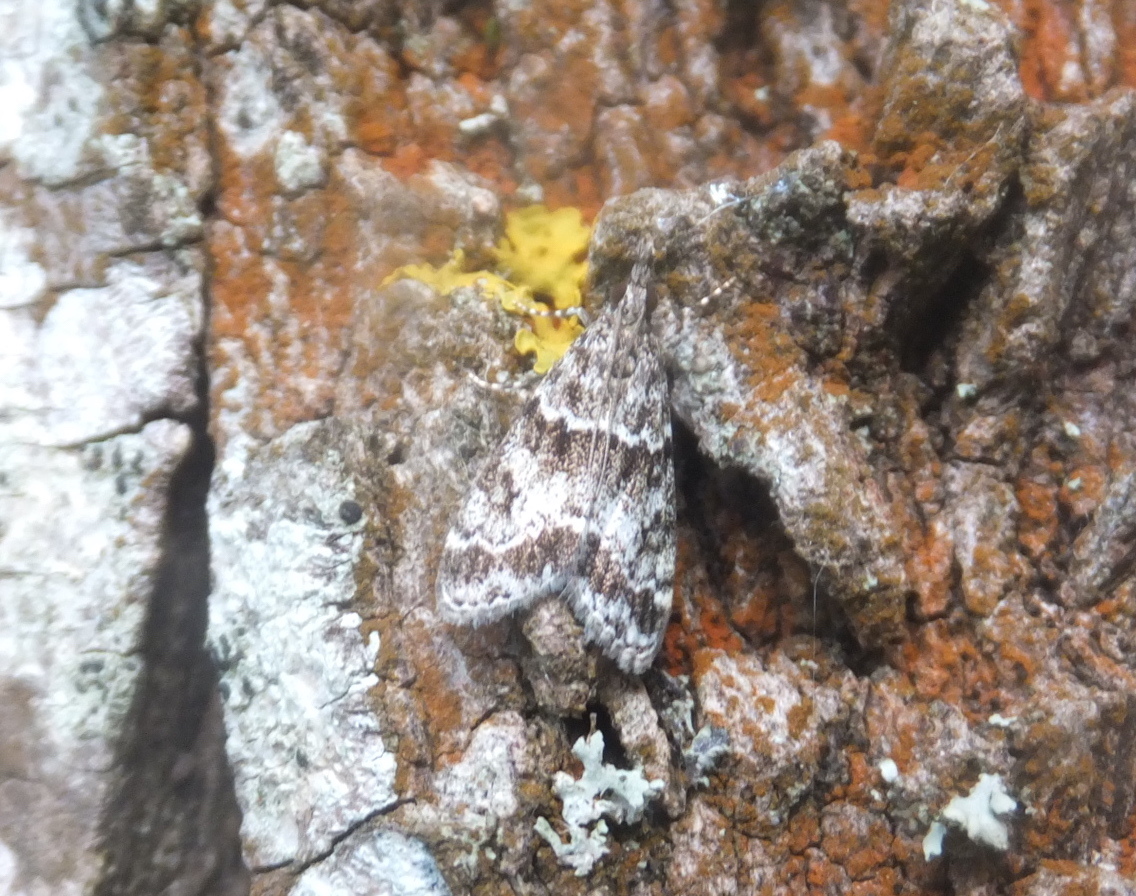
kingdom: Animalia
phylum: Arthropoda
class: Insecta
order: Lepidoptera
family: Crambidae
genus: Eudonia
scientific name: Eudonia lacustrata
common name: Little grey
